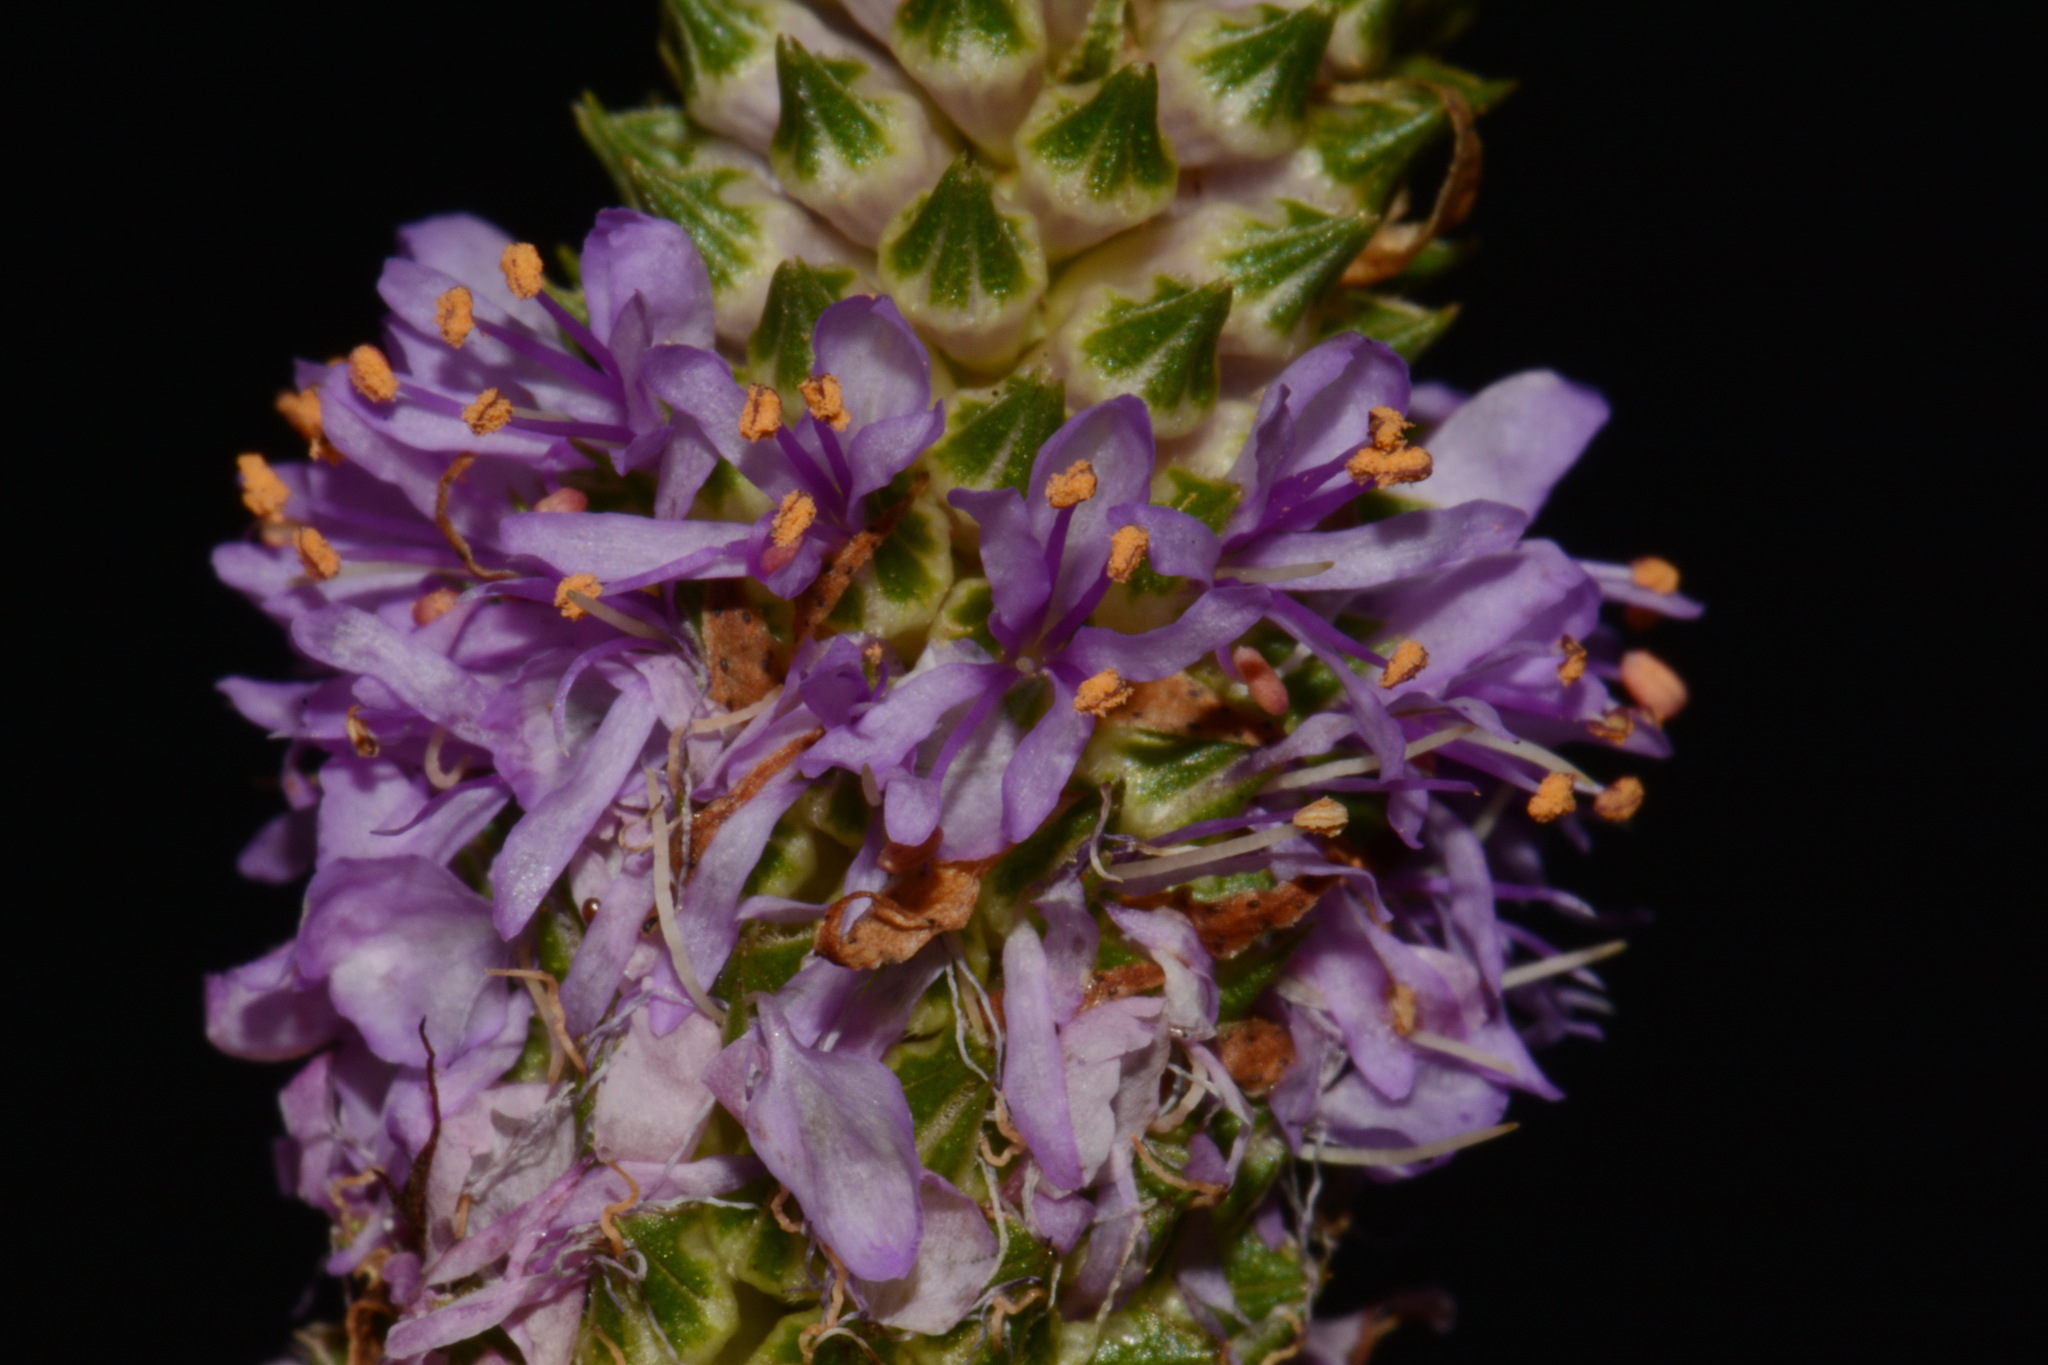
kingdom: Plantae
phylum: Tracheophyta
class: Magnoliopsida
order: Fabales
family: Fabaceae
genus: Dalea
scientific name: Dalea foliosa
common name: Leafy prairie-clover
